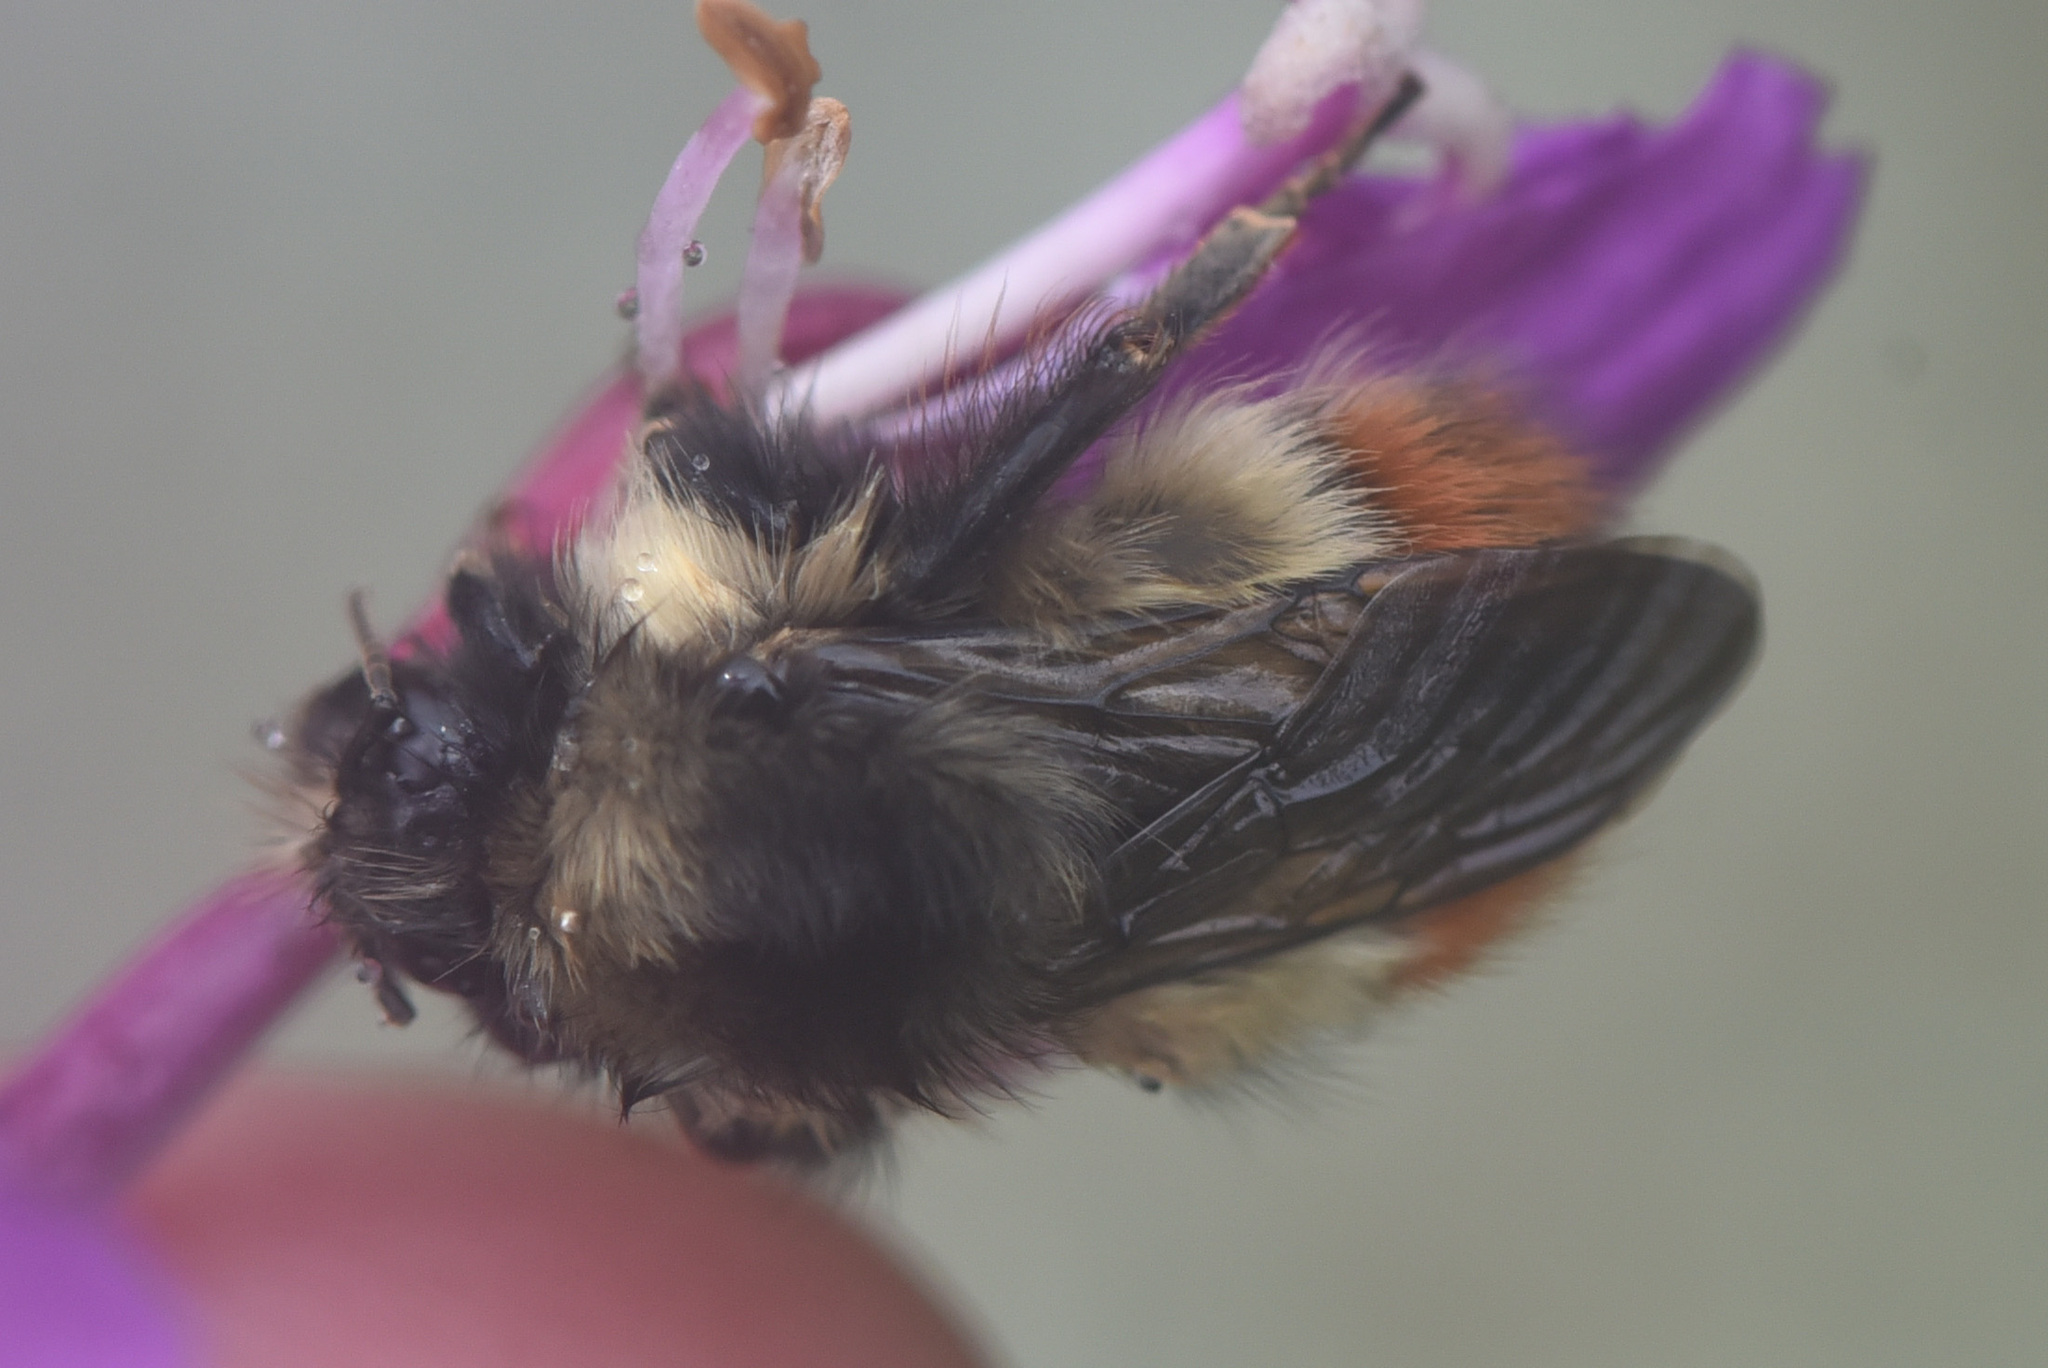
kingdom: Animalia
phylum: Arthropoda
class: Insecta
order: Hymenoptera
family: Apidae
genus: Bombus
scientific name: Bombus flavifrons
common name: Yellow head bumble bee
